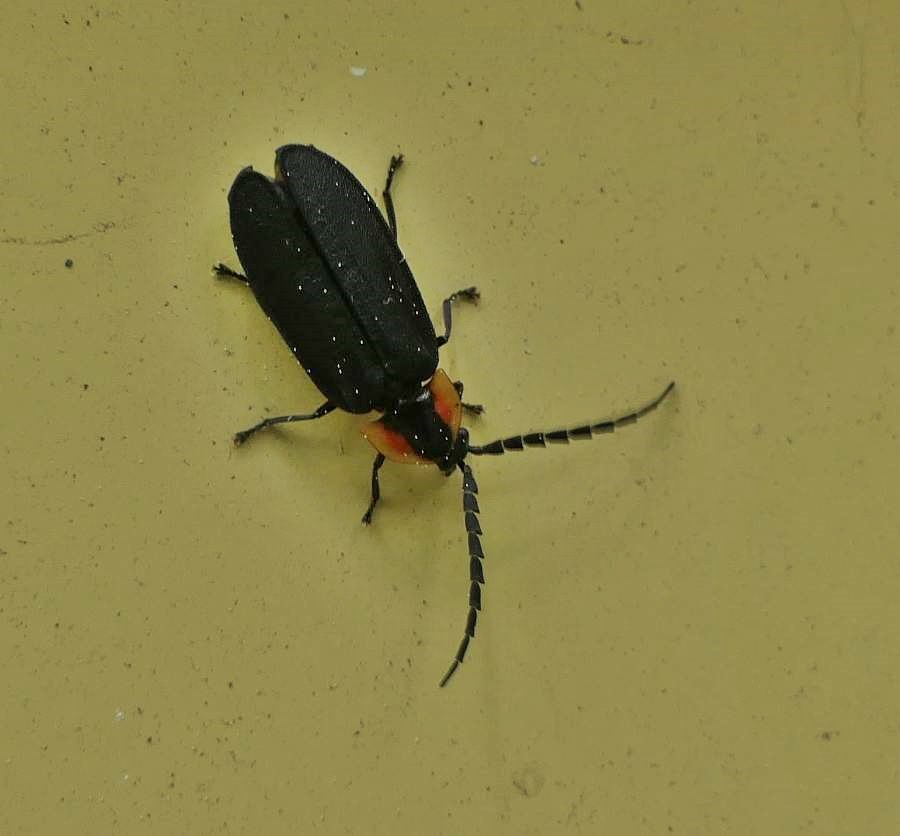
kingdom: Animalia
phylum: Arthropoda
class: Insecta
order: Coleoptera
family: Lampyridae
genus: Lucidota
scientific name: Lucidota atra
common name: Black firefly
